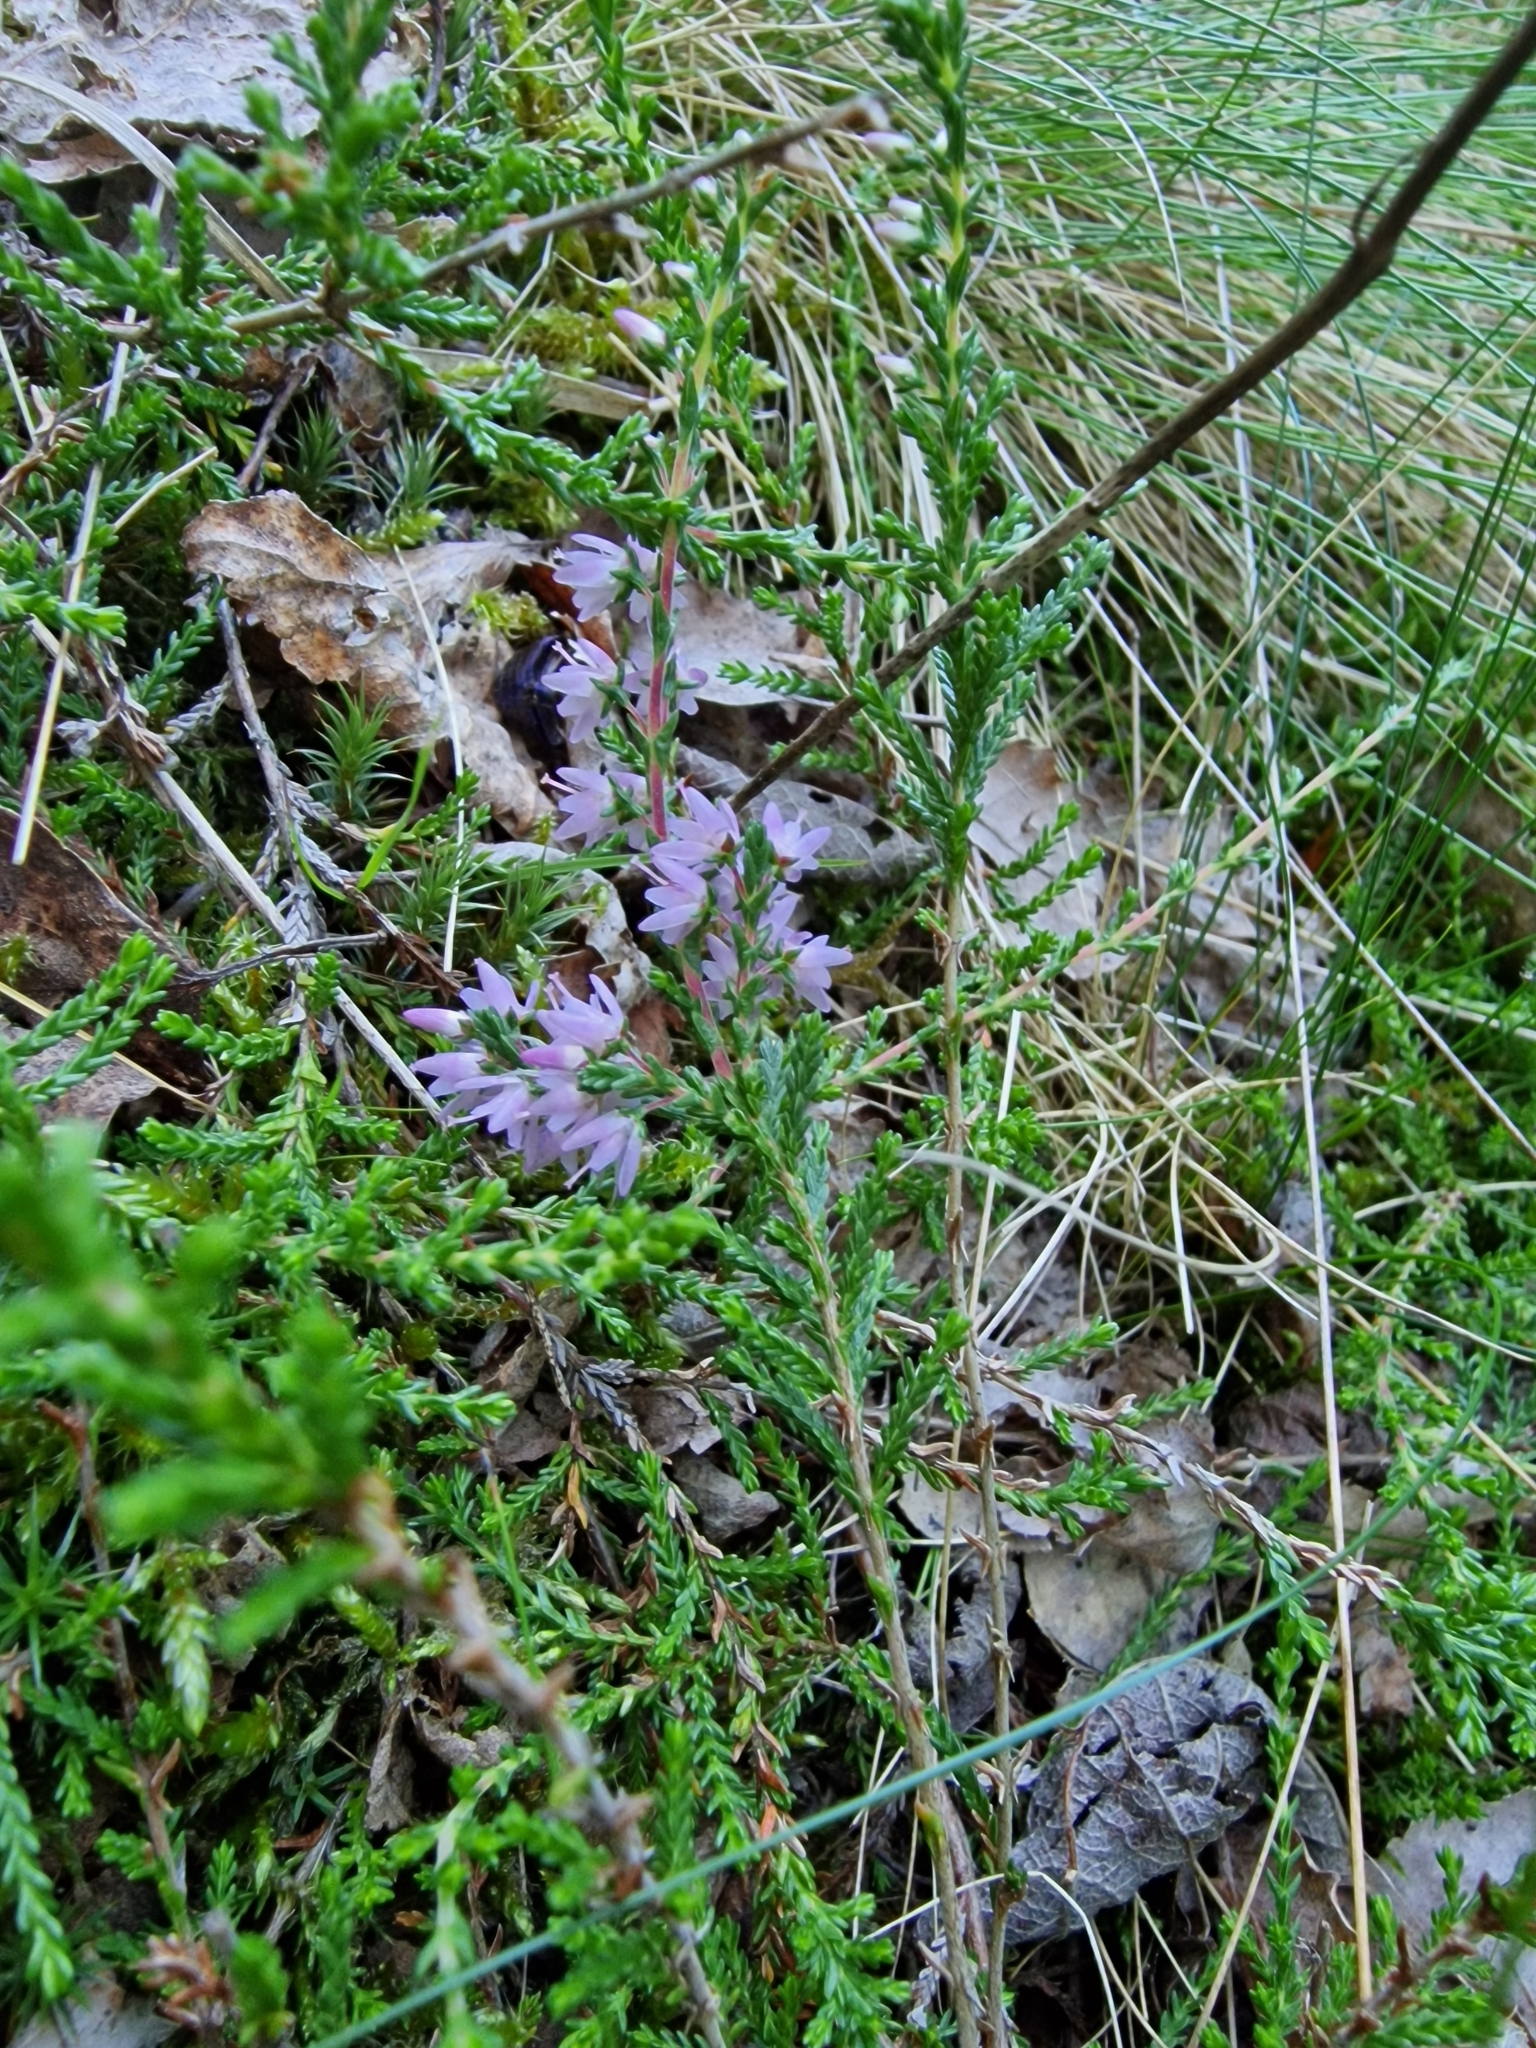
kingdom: Plantae
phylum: Tracheophyta
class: Magnoliopsida
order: Ericales
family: Ericaceae
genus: Calluna
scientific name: Calluna vulgaris
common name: Heather
